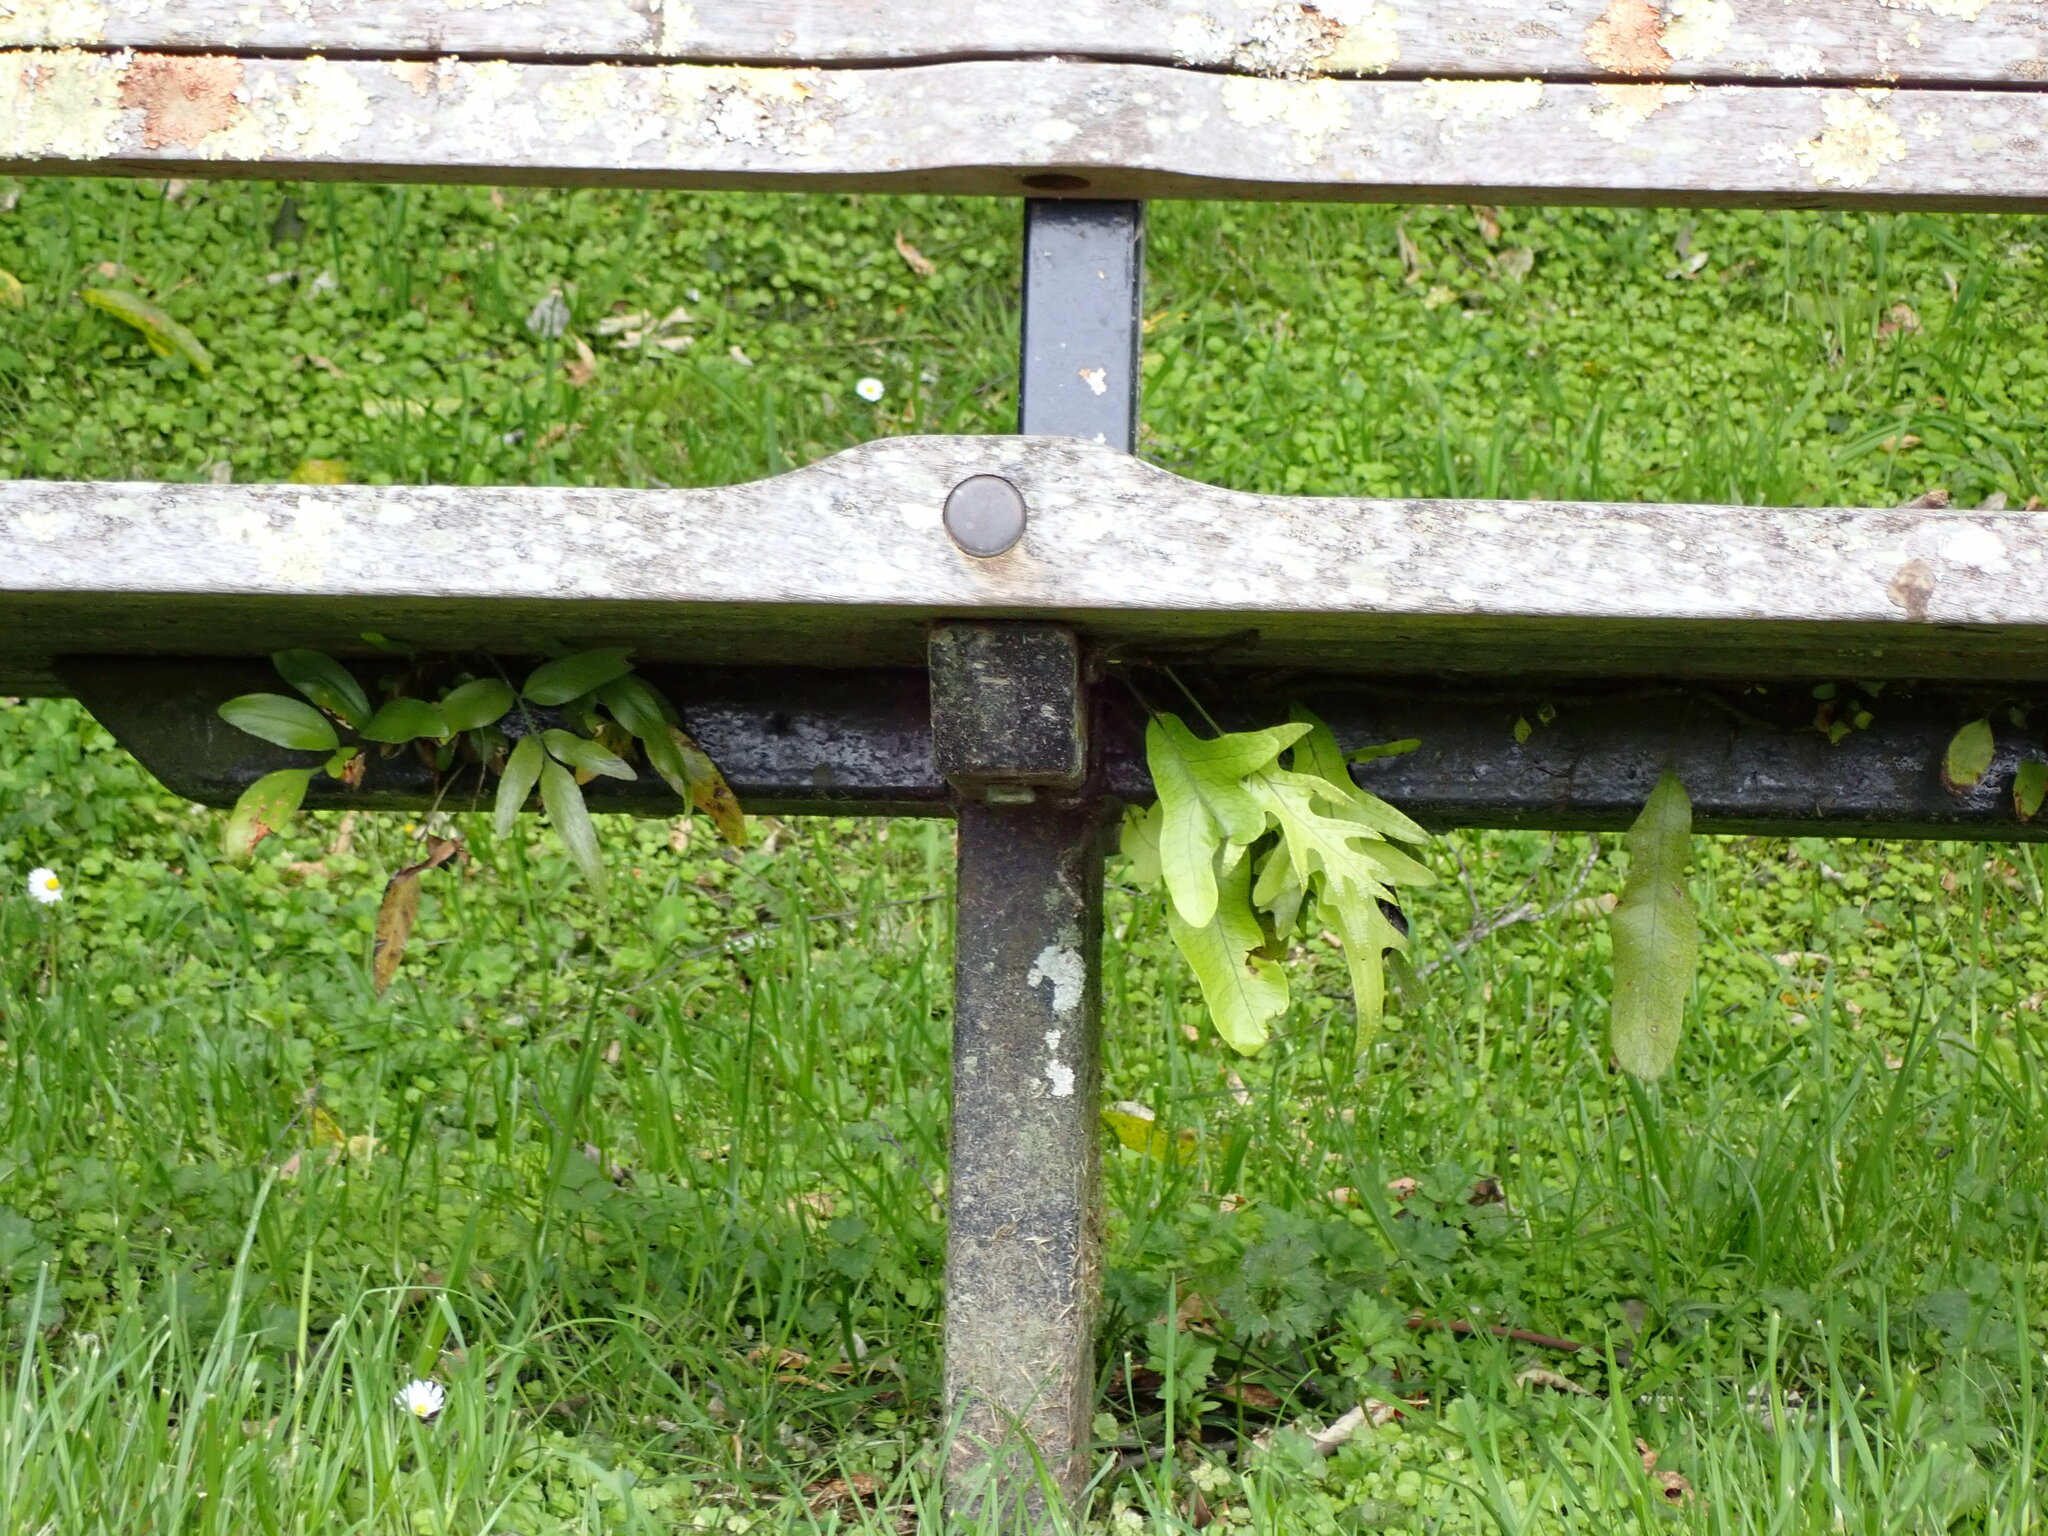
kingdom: Plantae
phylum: Tracheophyta
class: Polypodiopsida
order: Polypodiales
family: Aspleniaceae
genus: Asplenium
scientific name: Asplenium oblongifolium
